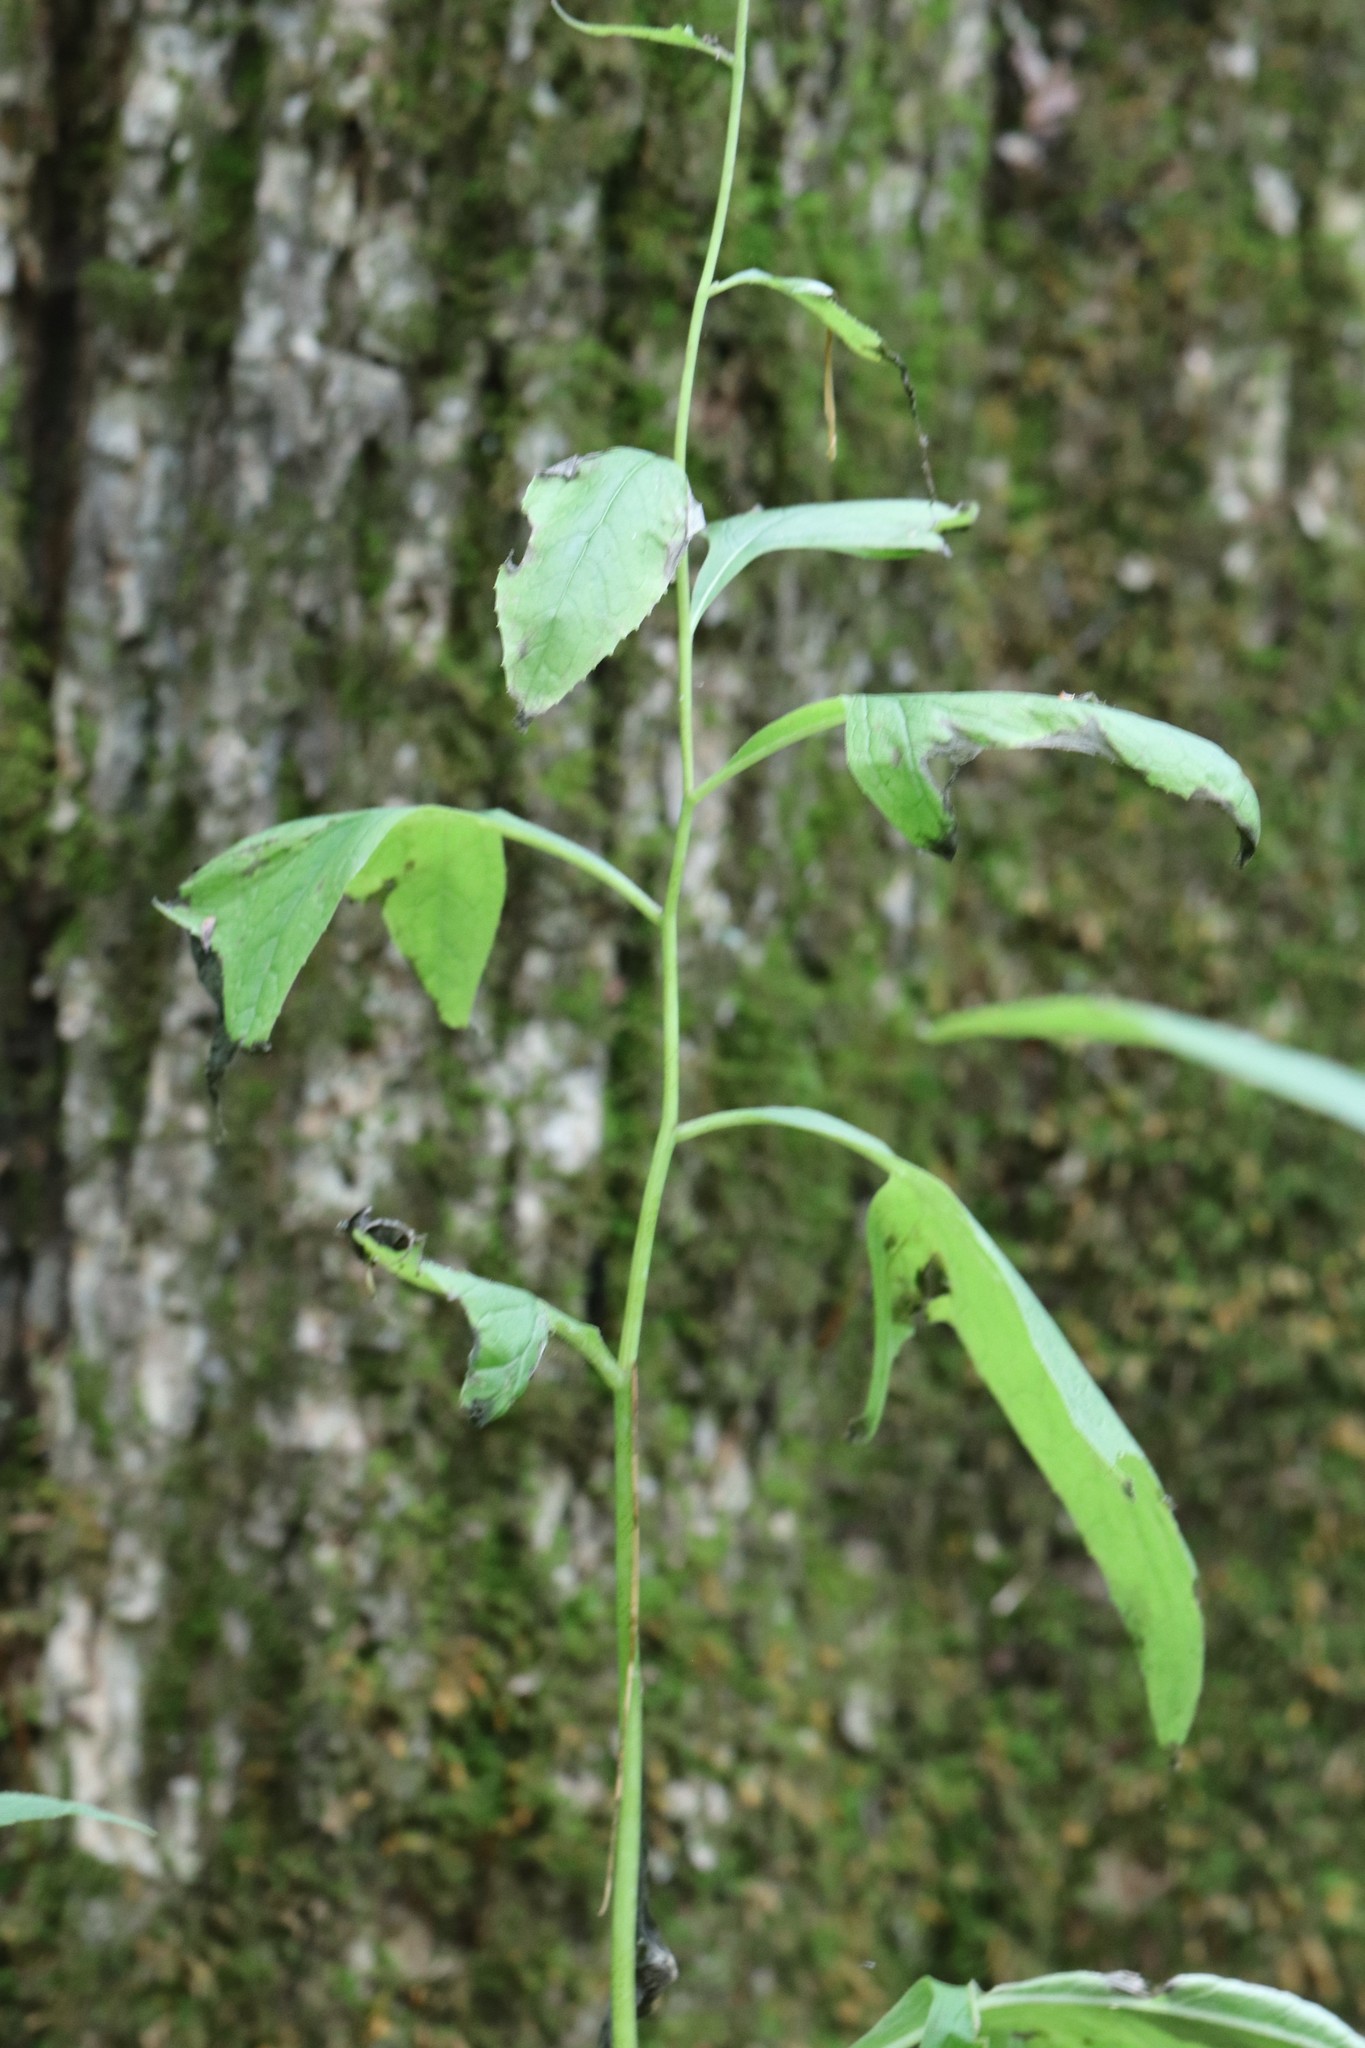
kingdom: Plantae
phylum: Tracheophyta
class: Magnoliopsida
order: Asterales
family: Asteraceae
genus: Parasenecio
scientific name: Parasenecio hastatus
